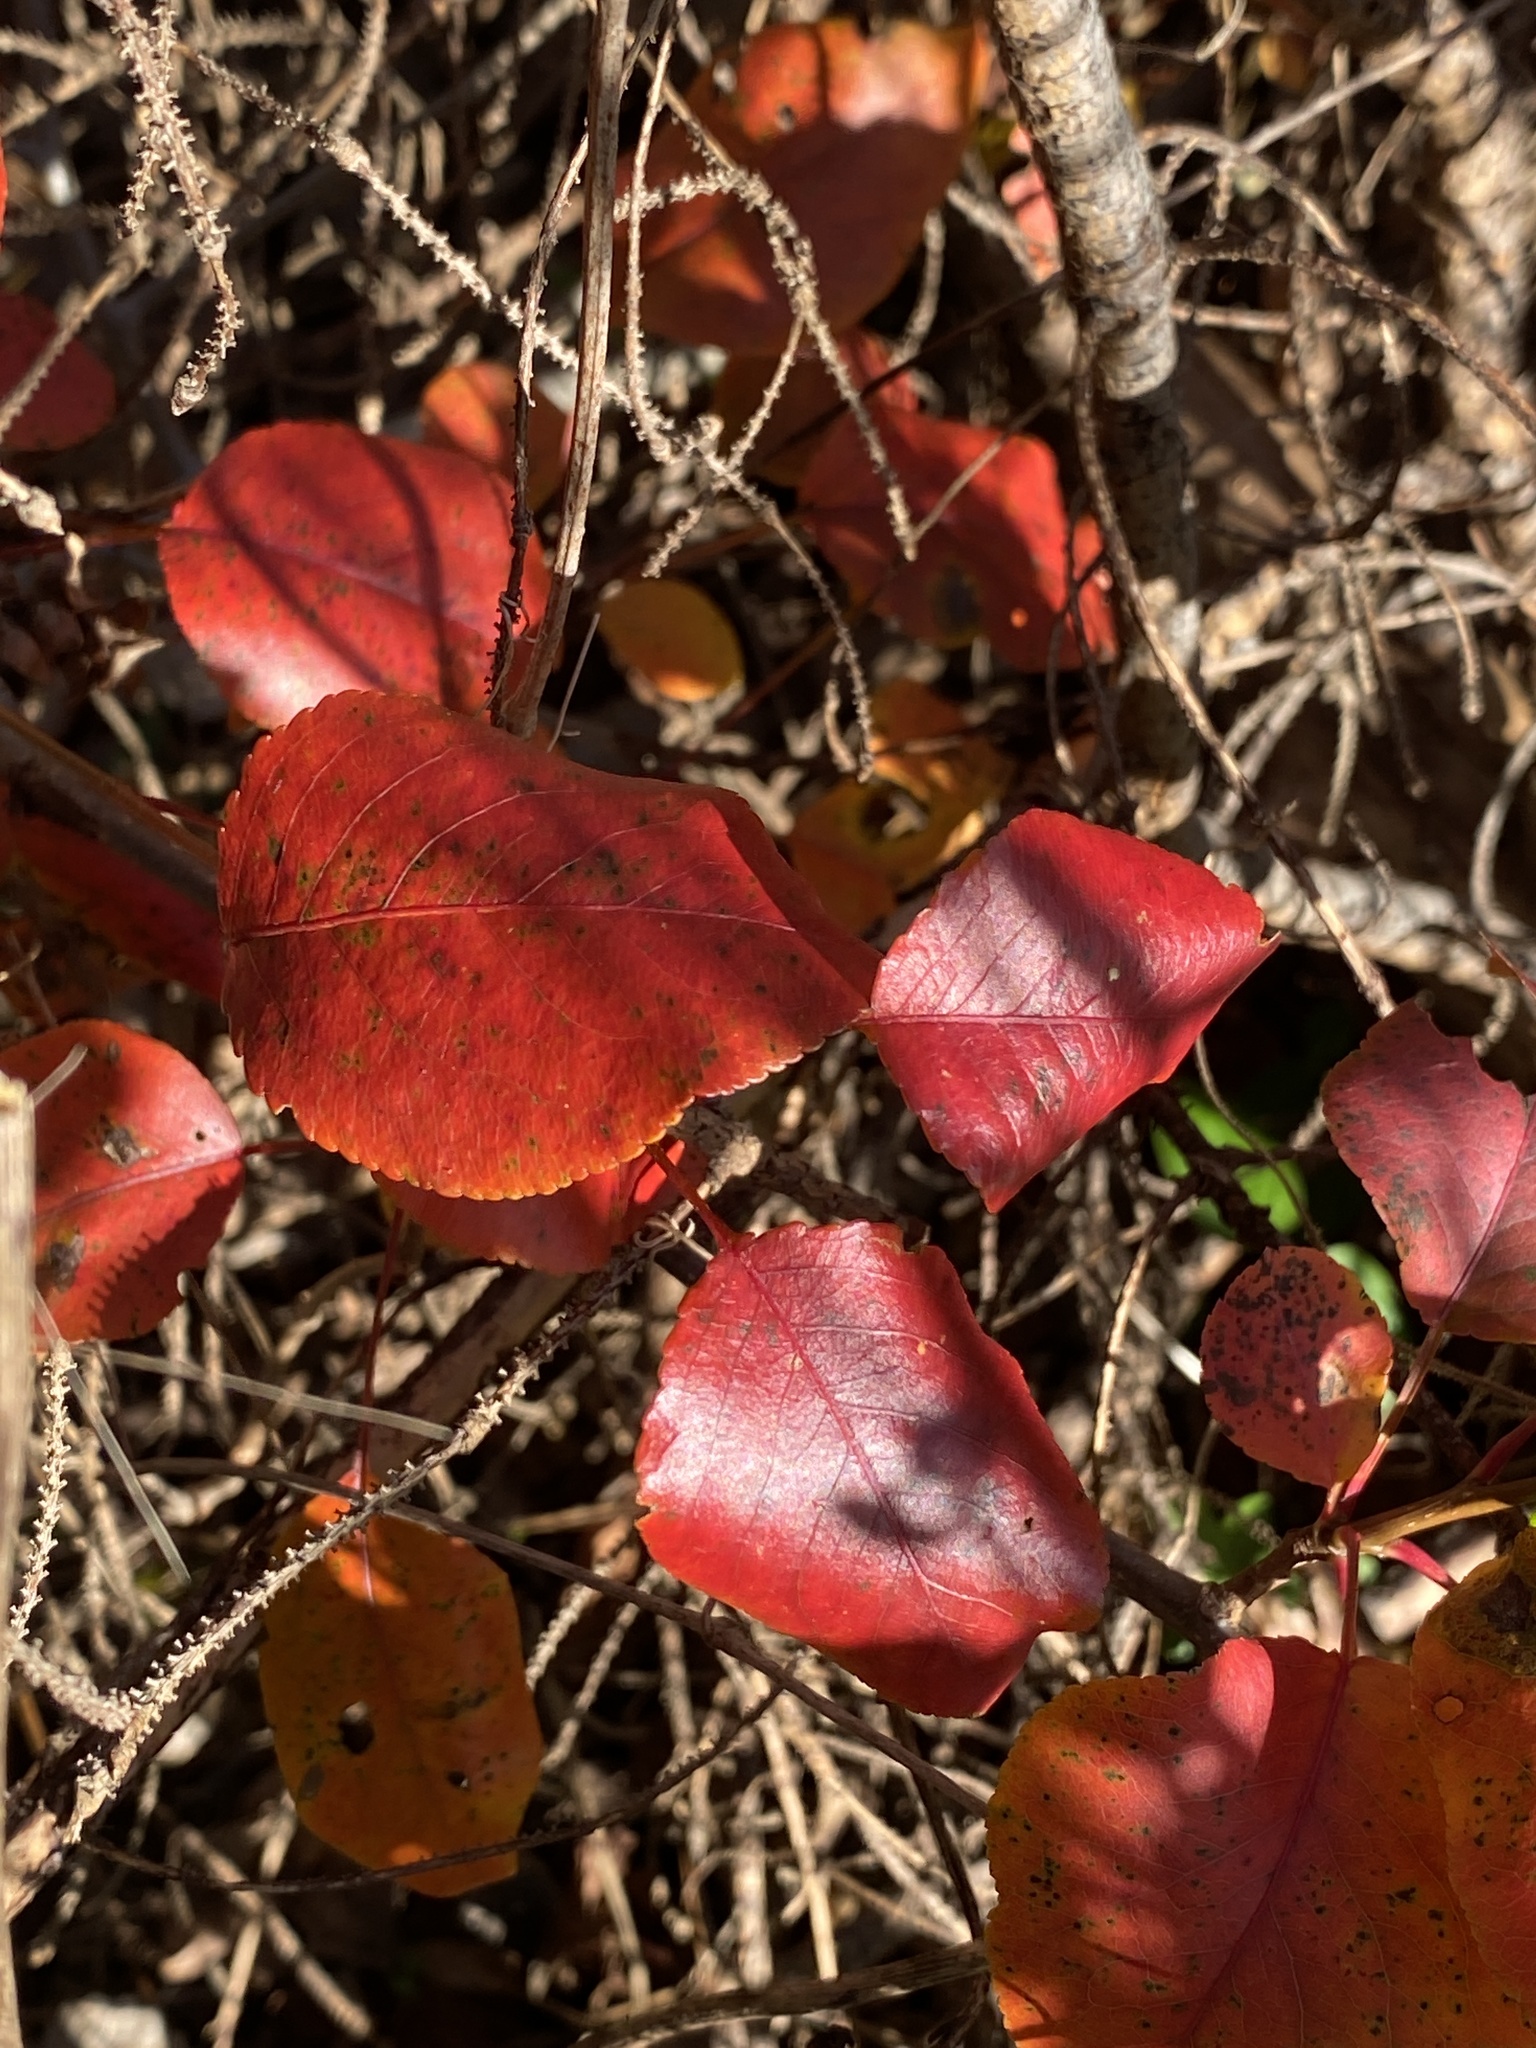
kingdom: Plantae
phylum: Tracheophyta
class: Magnoliopsida
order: Rosales
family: Rosaceae
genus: Pyrus
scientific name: Pyrus calleryana
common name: Callery pear
